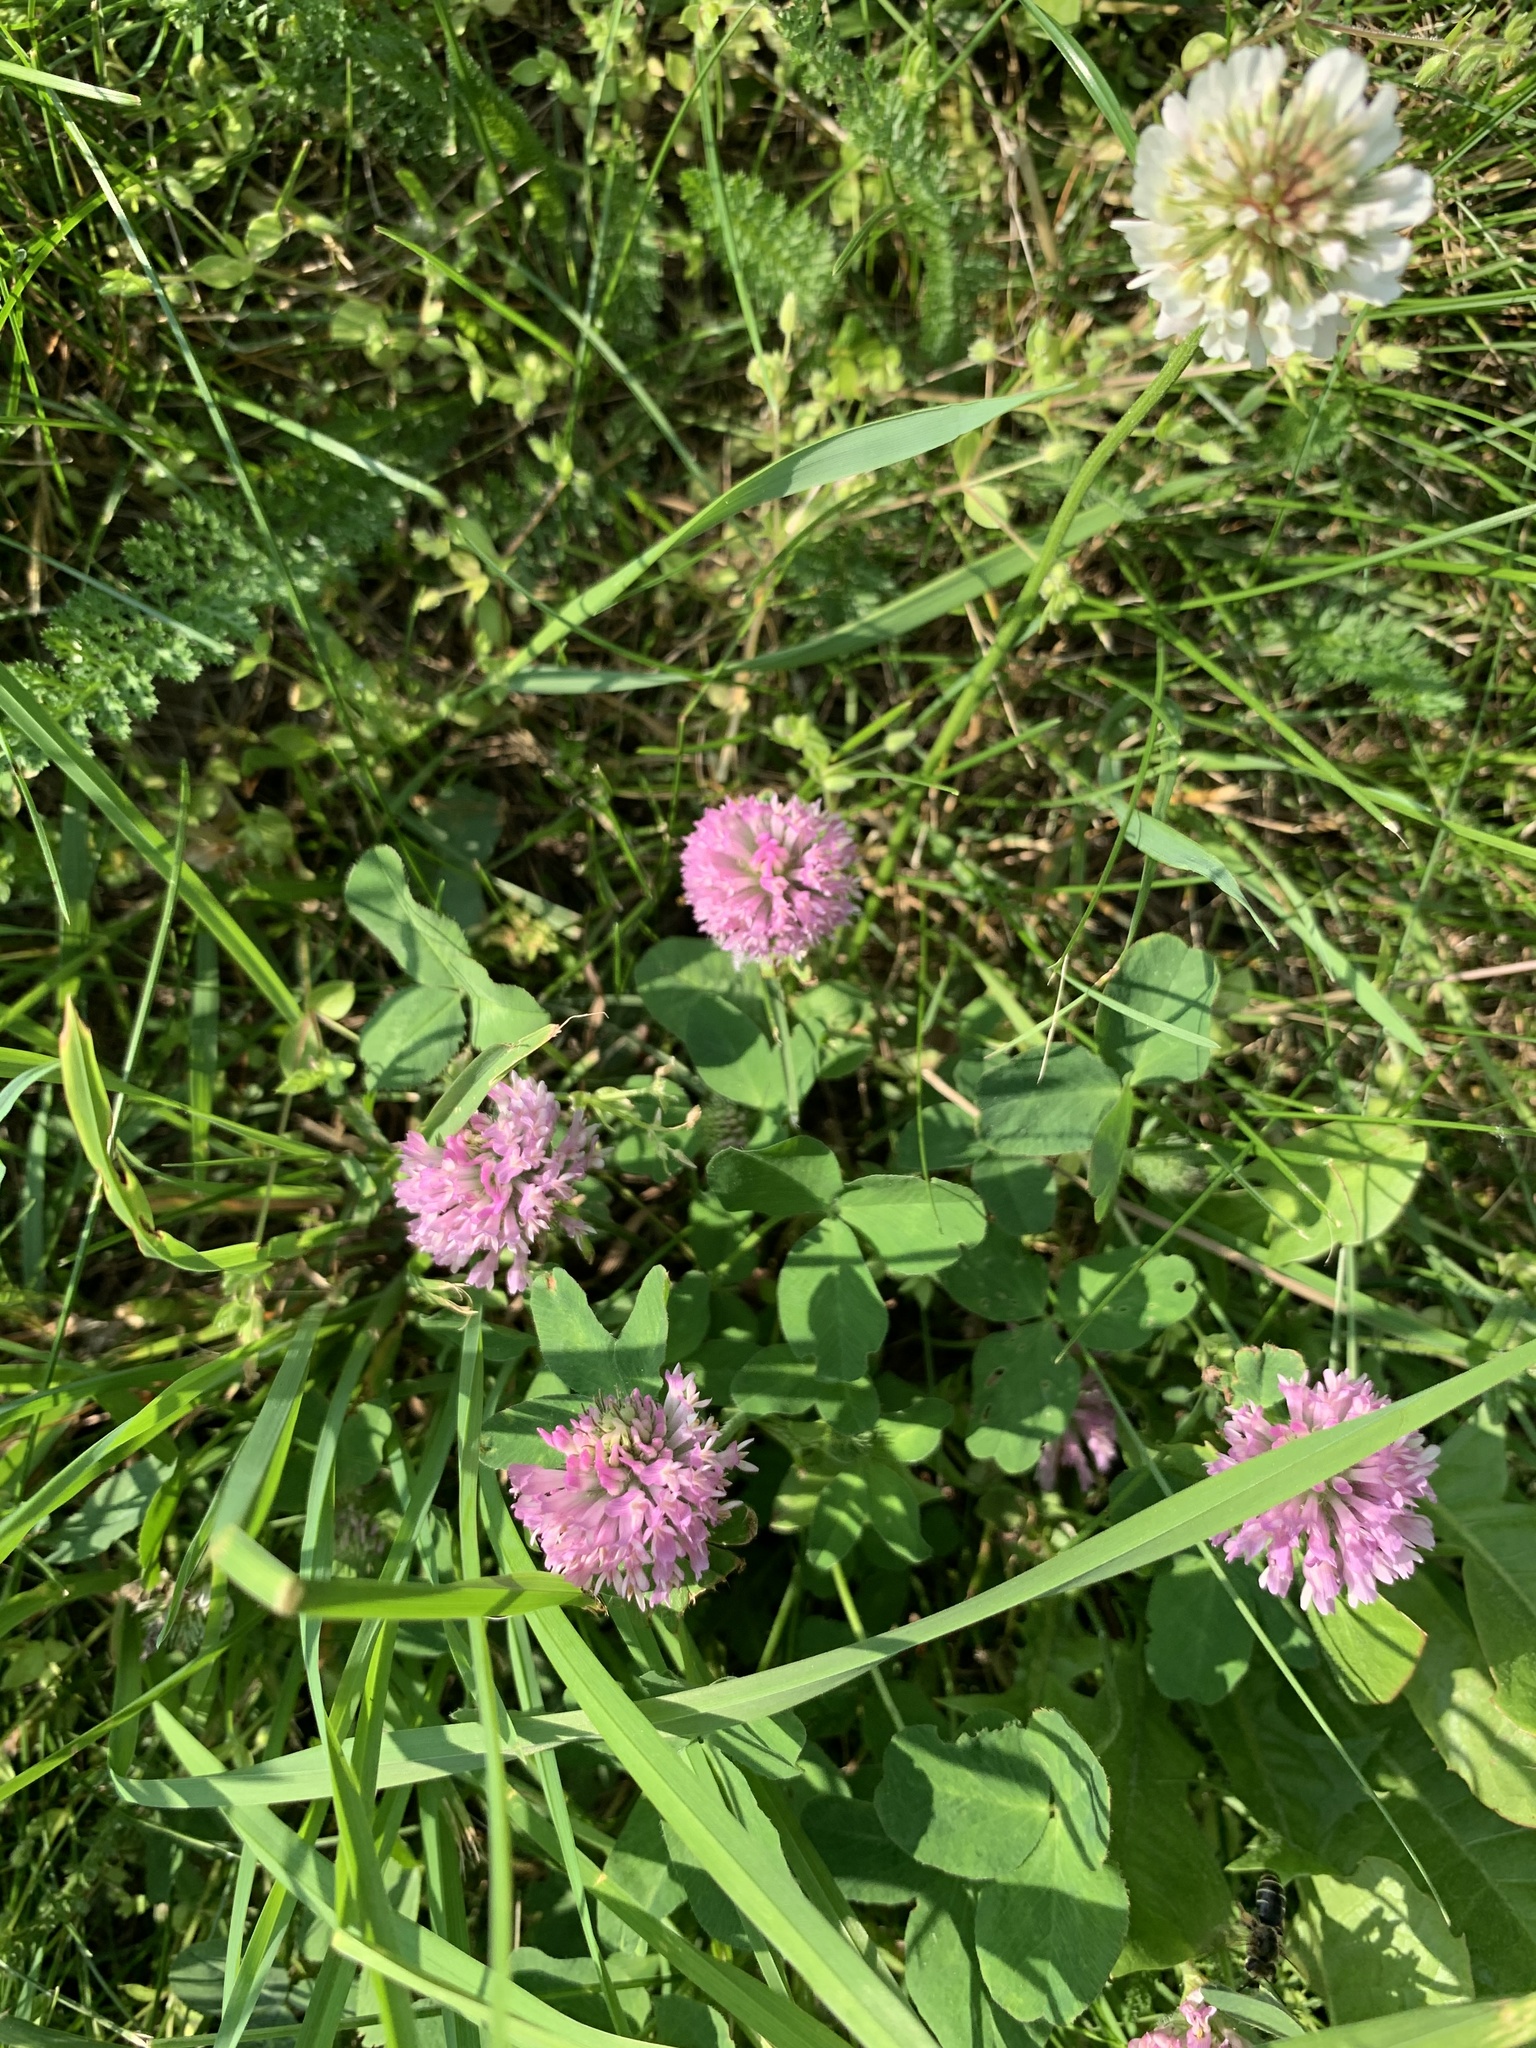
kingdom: Plantae
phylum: Tracheophyta
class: Magnoliopsida
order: Fabales
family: Fabaceae
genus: Trifolium
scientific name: Trifolium pratense
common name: Red clover
